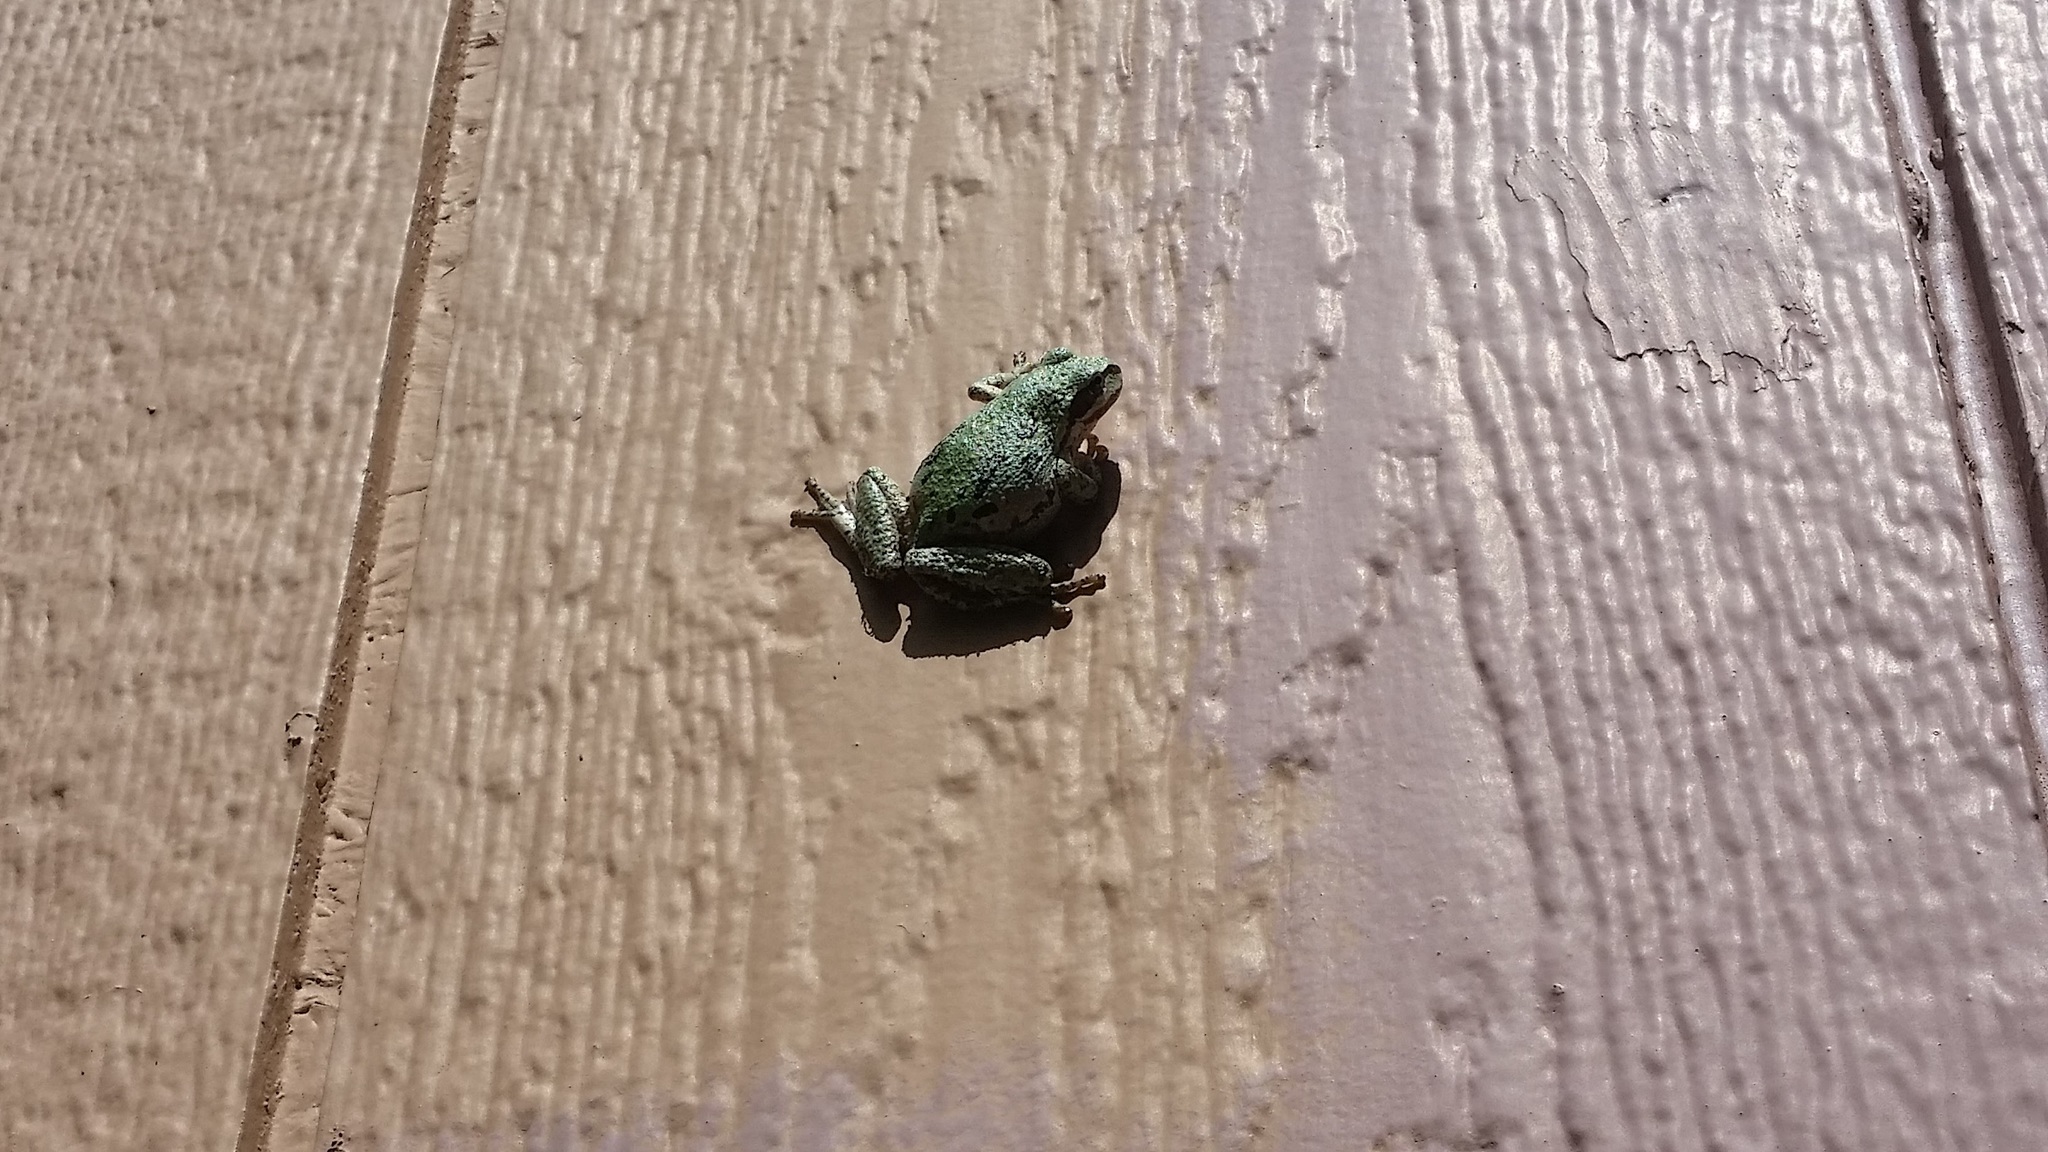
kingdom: Animalia
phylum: Chordata
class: Amphibia
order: Anura
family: Hylidae
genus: Pseudacris
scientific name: Pseudacris regilla
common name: Pacific chorus frog
